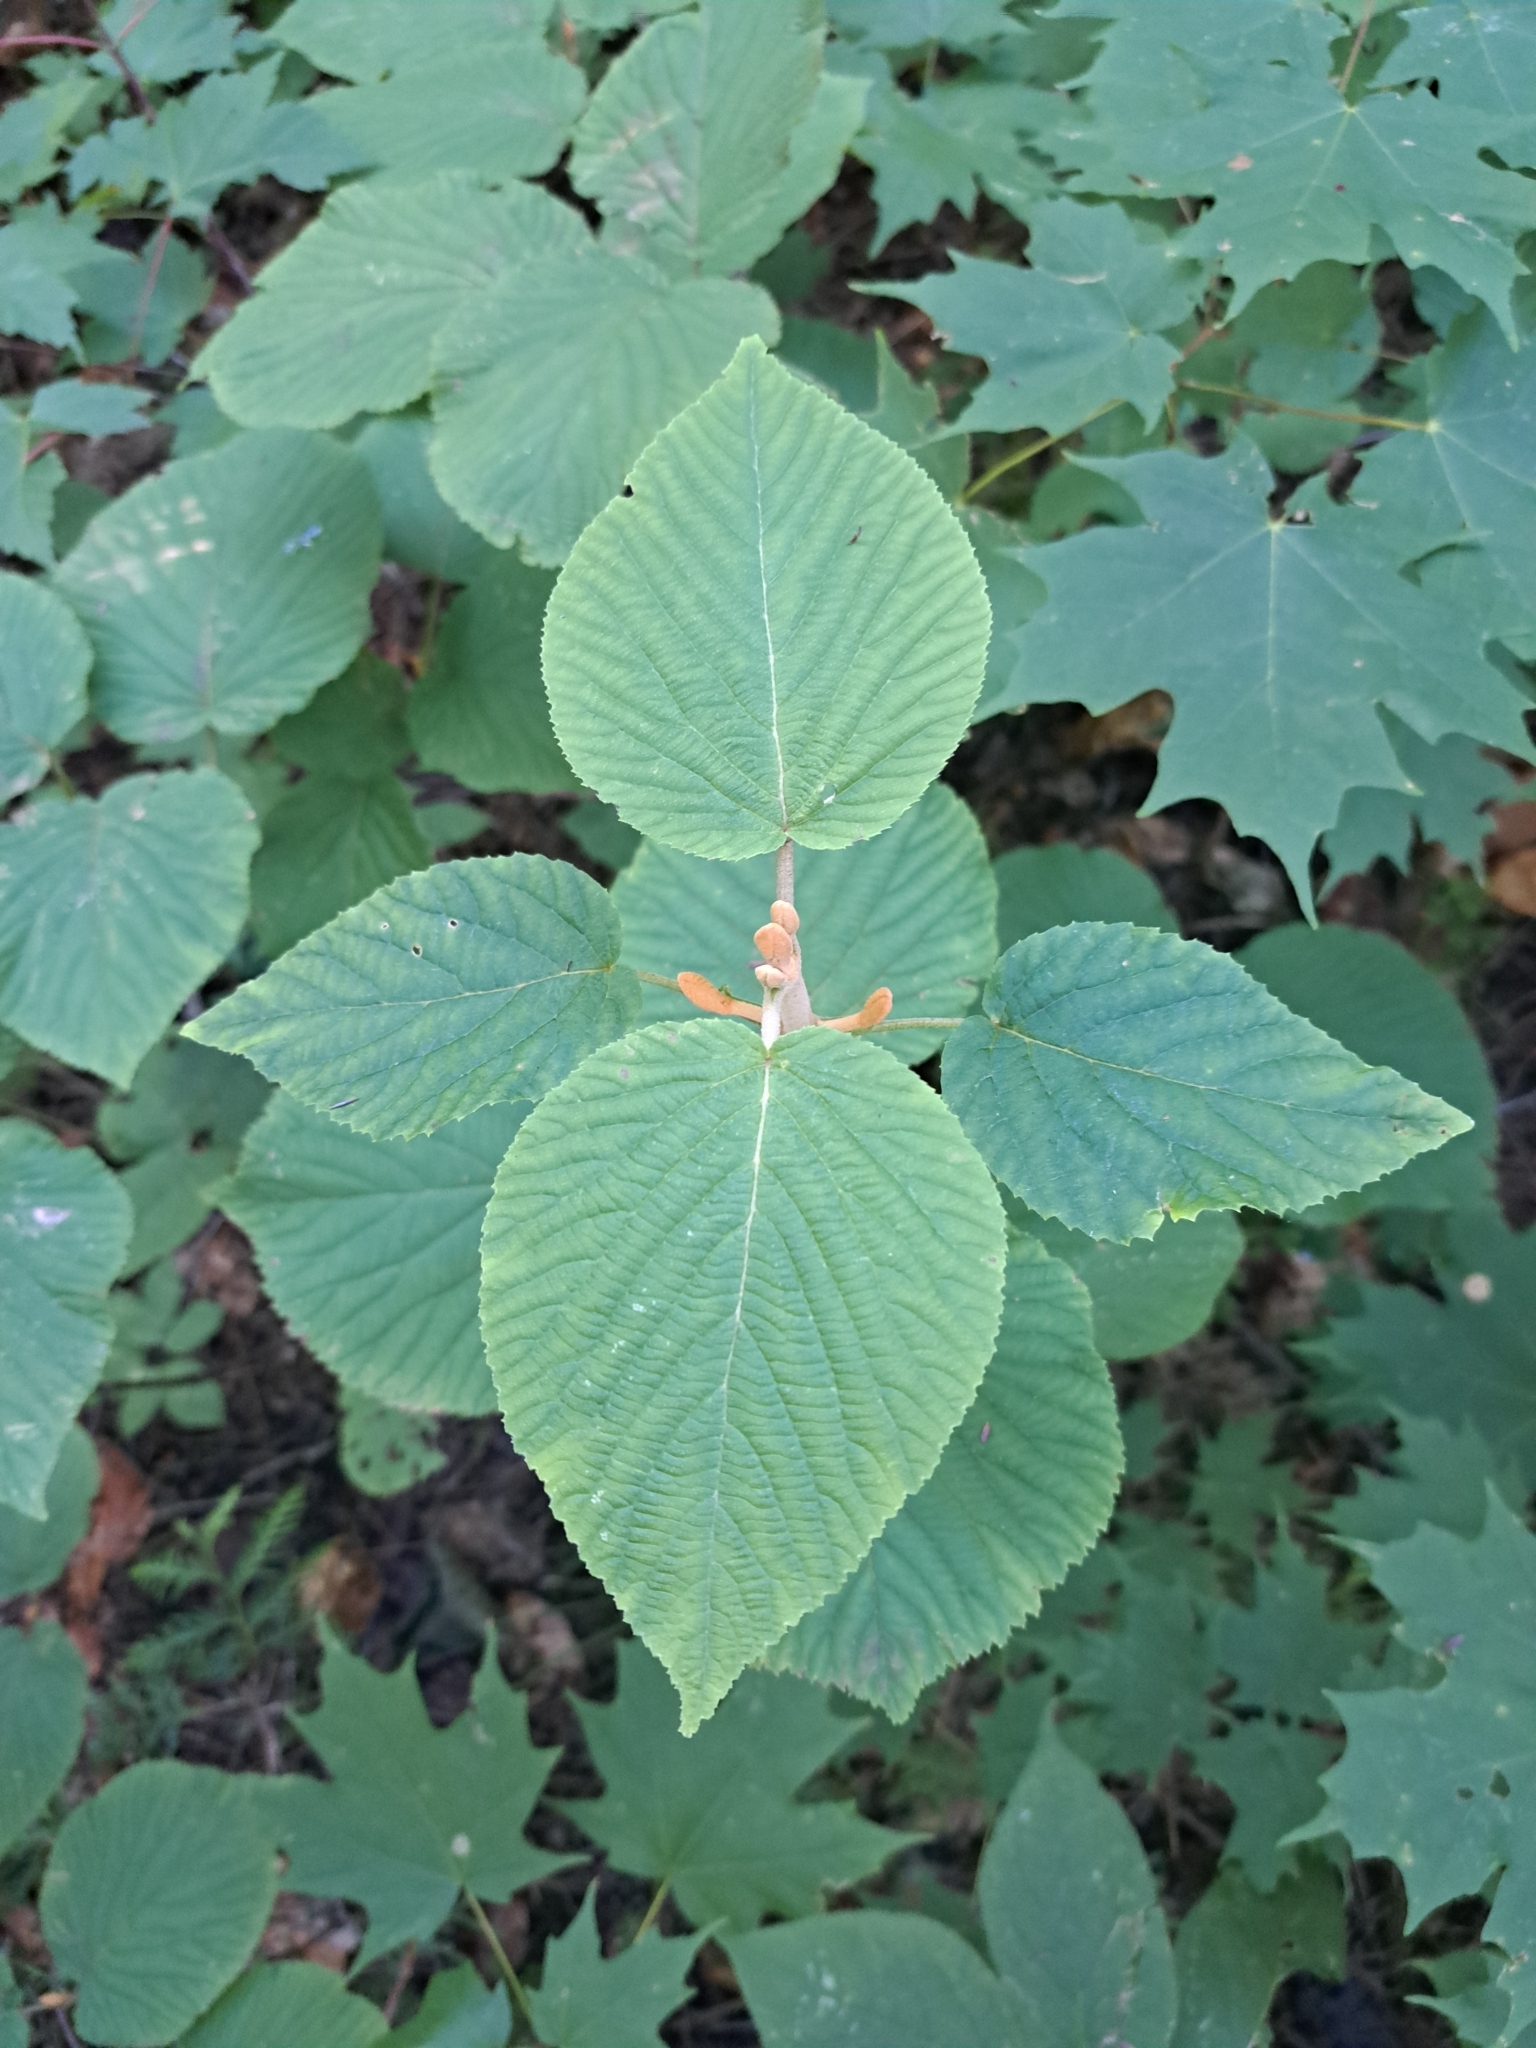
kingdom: Plantae
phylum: Tracheophyta
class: Magnoliopsida
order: Dipsacales
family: Viburnaceae
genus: Viburnum
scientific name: Viburnum lantanoides
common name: Hobblebush
